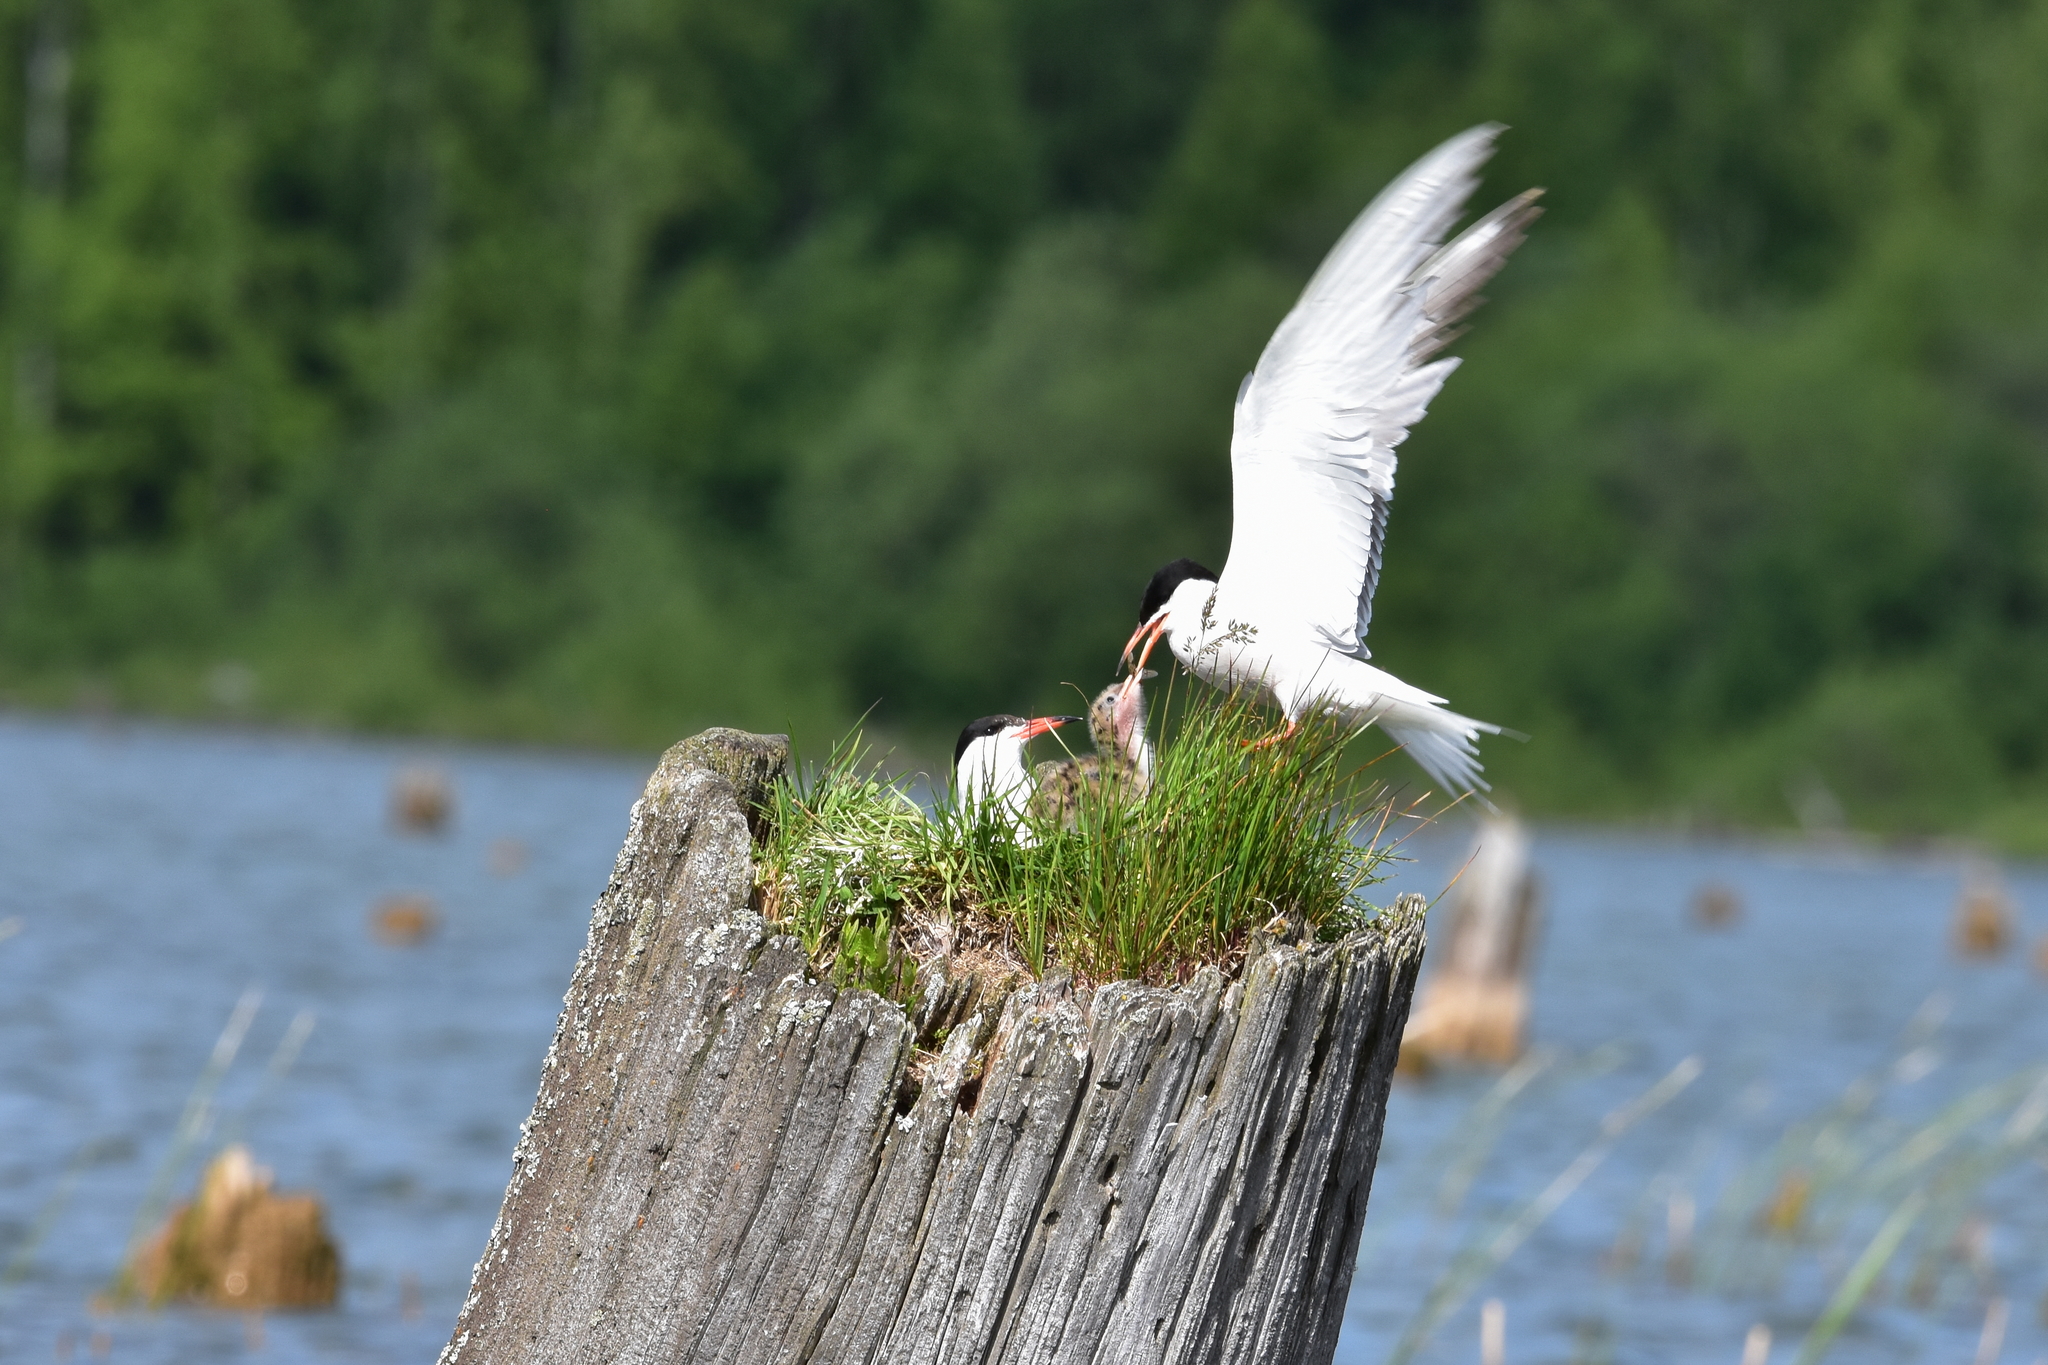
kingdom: Animalia
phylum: Chordata
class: Aves
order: Charadriiformes
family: Laridae
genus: Sterna
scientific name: Sterna hirundo
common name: Common tern
